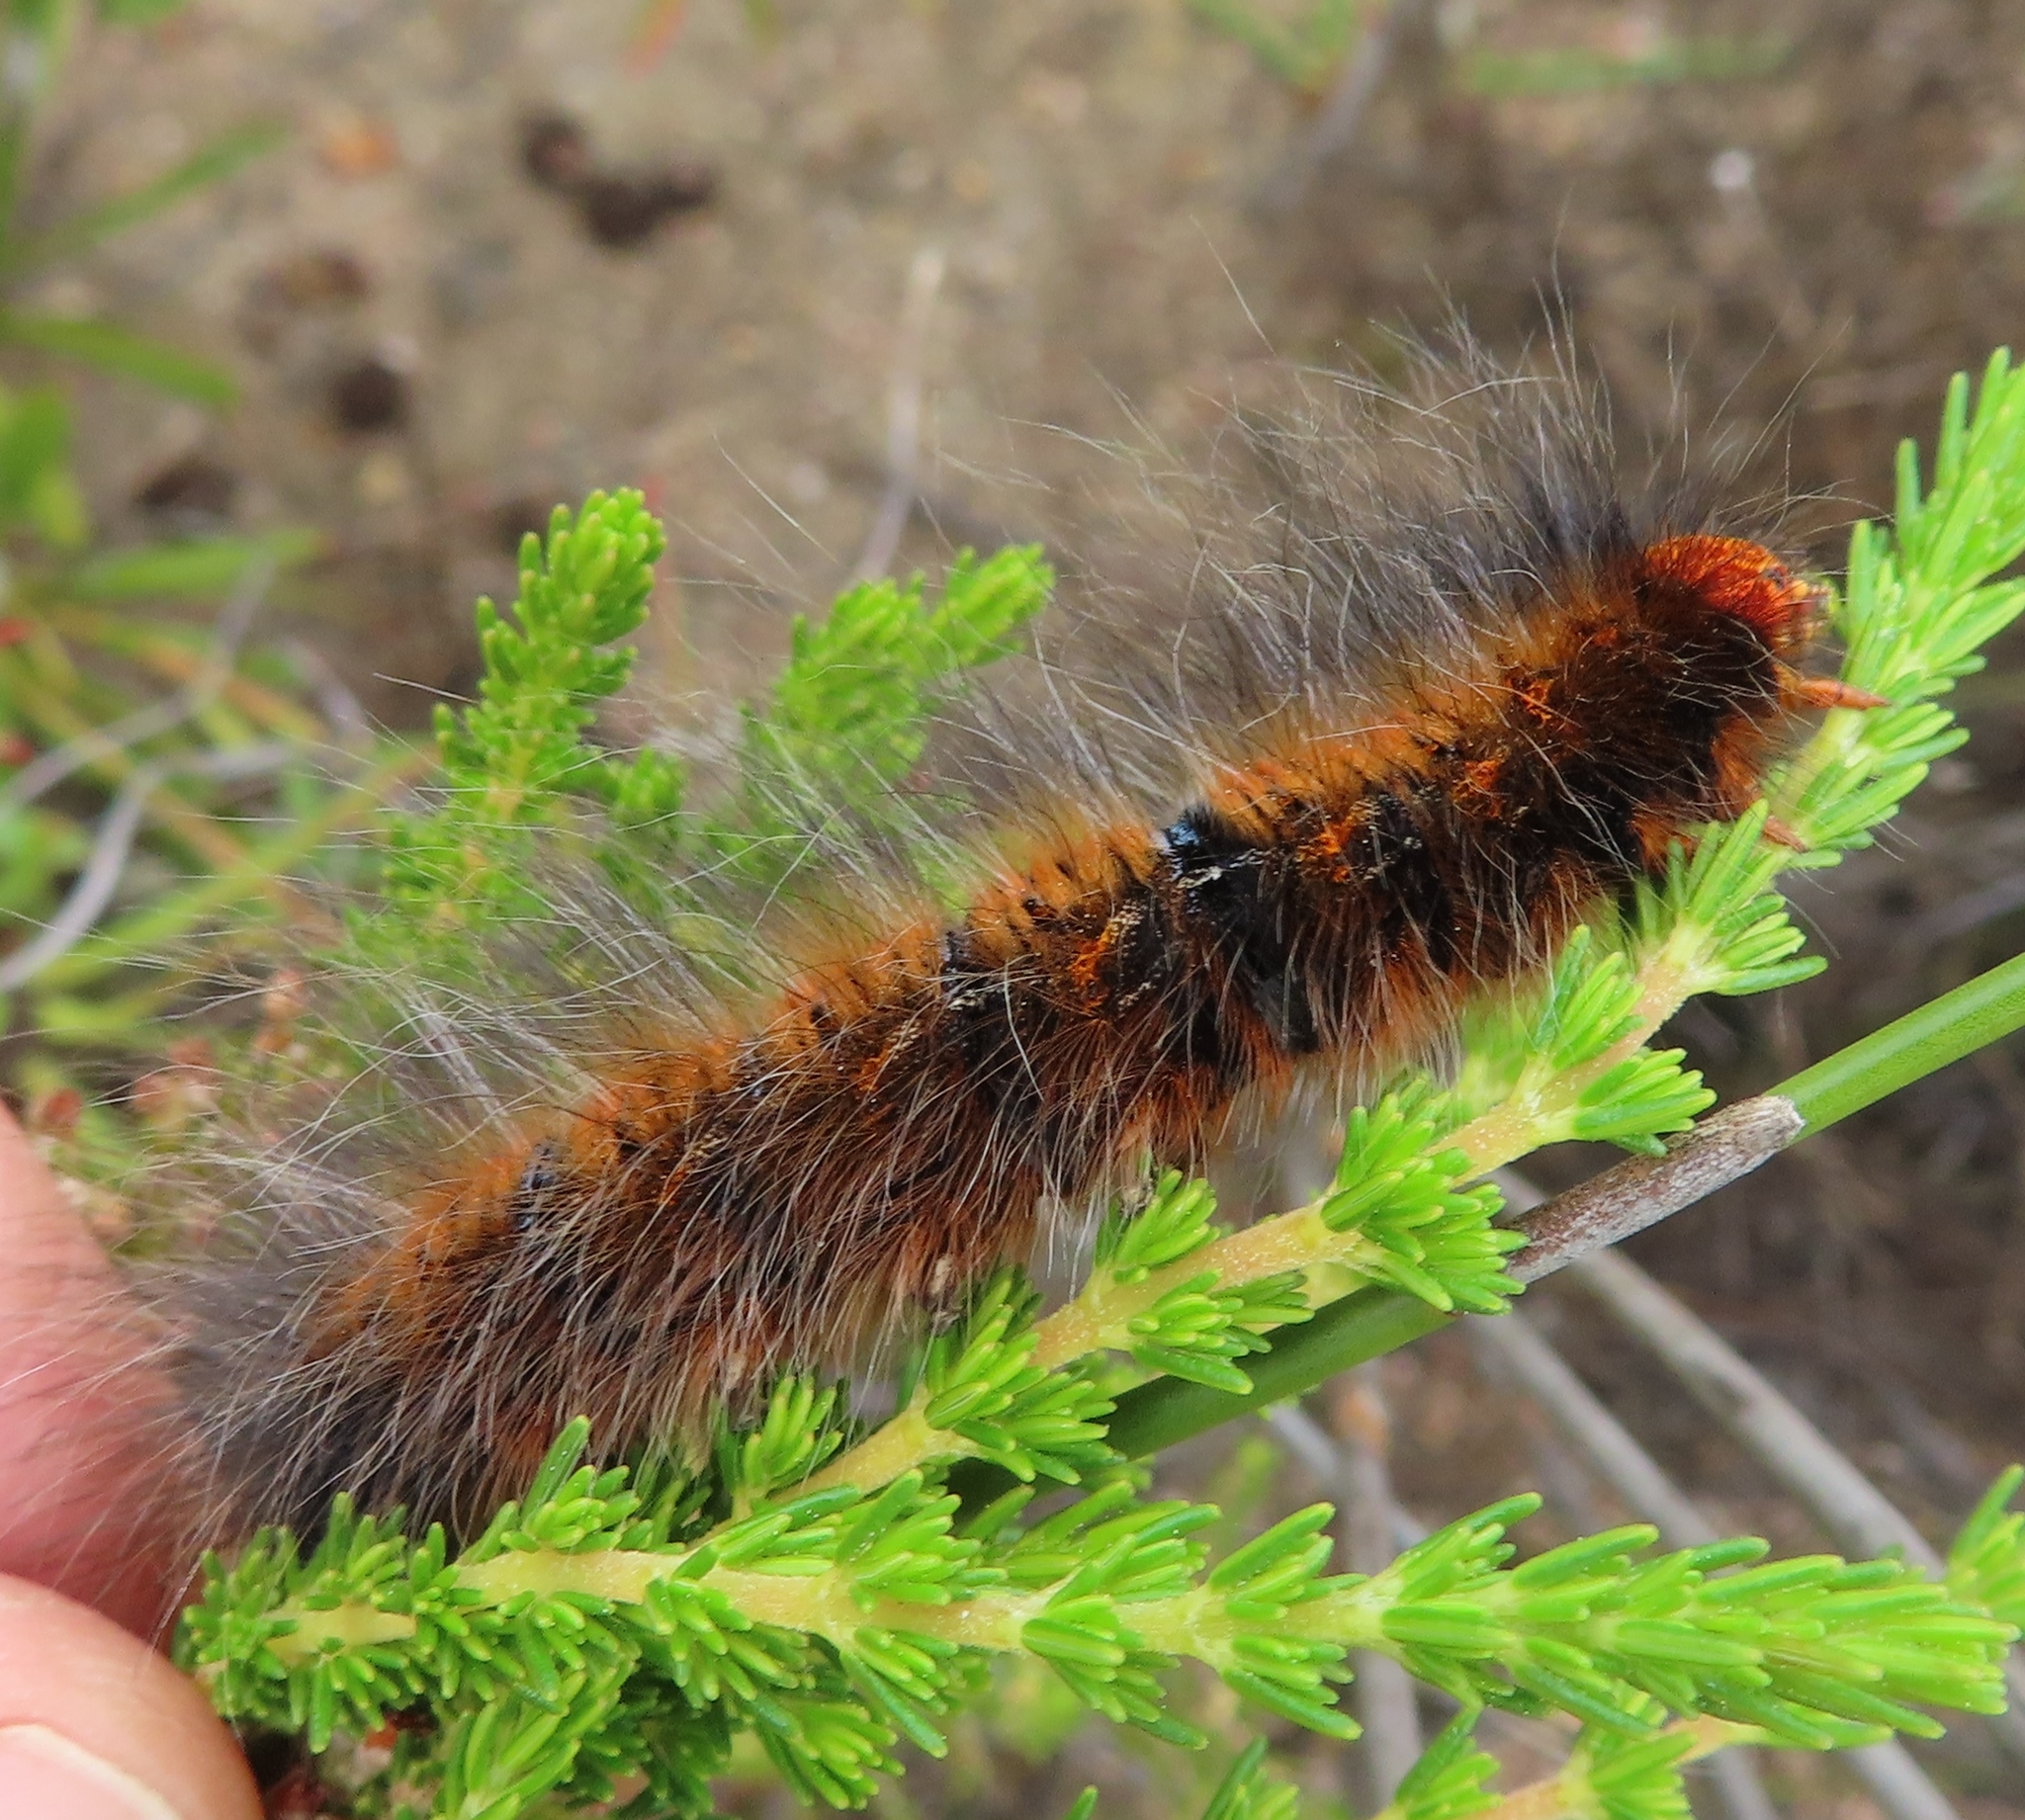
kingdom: Animalia
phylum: Arthropoda
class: Insecta
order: Lepidoptera
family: Lasiocampidae
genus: Mesocelis
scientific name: Mesocelis monticola
